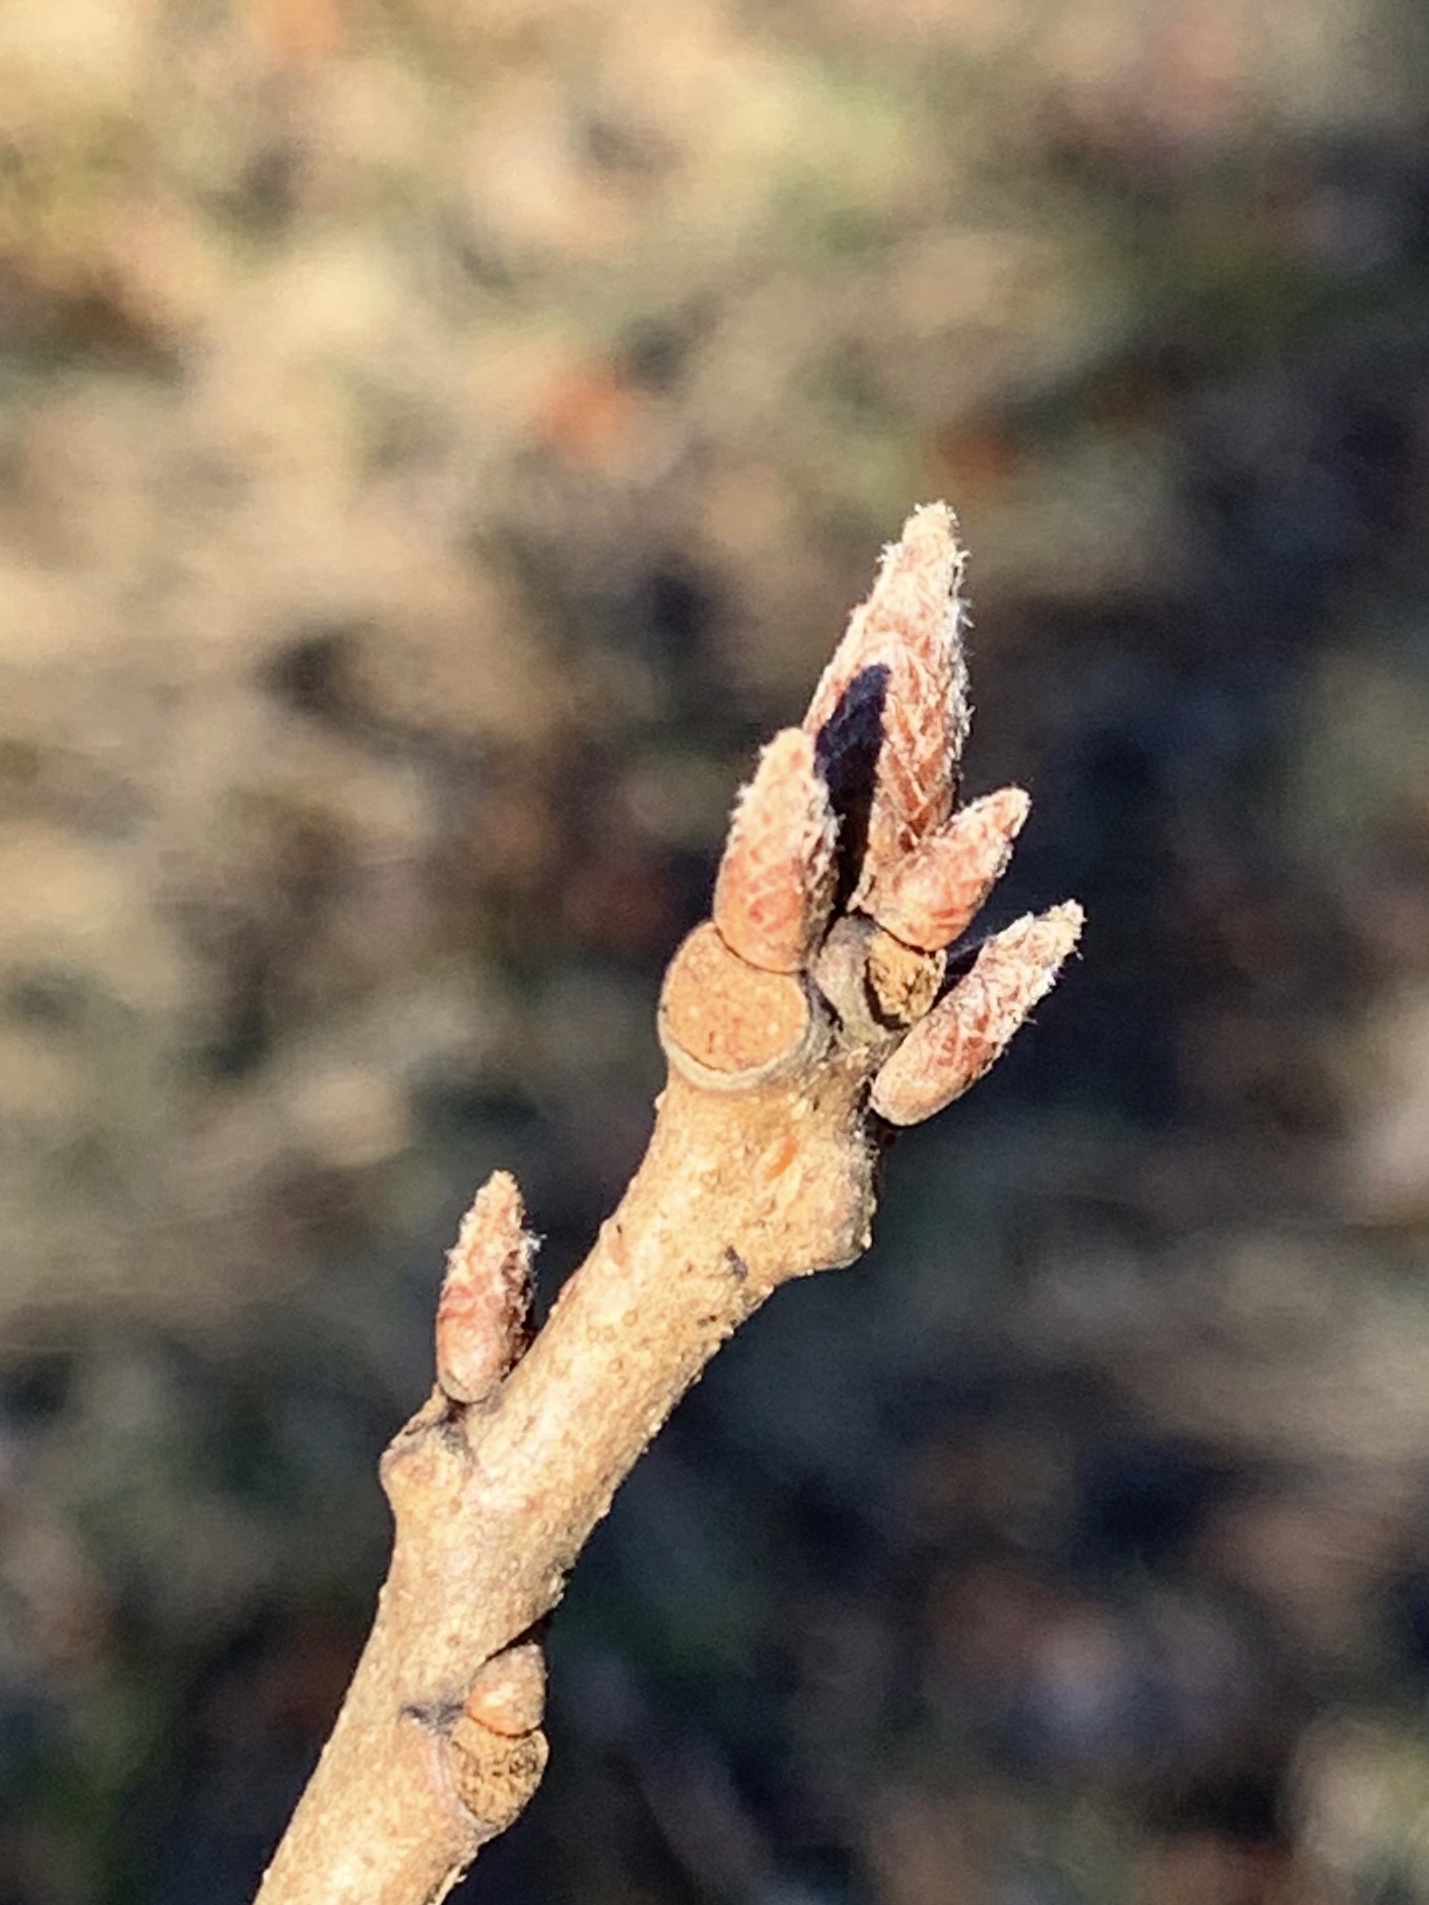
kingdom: Plantae
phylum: Tracheophyta
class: Magnoliopsida
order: Fagales
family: Fagaceae
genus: Quercus
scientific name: Quercus rubra
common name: Red oak
